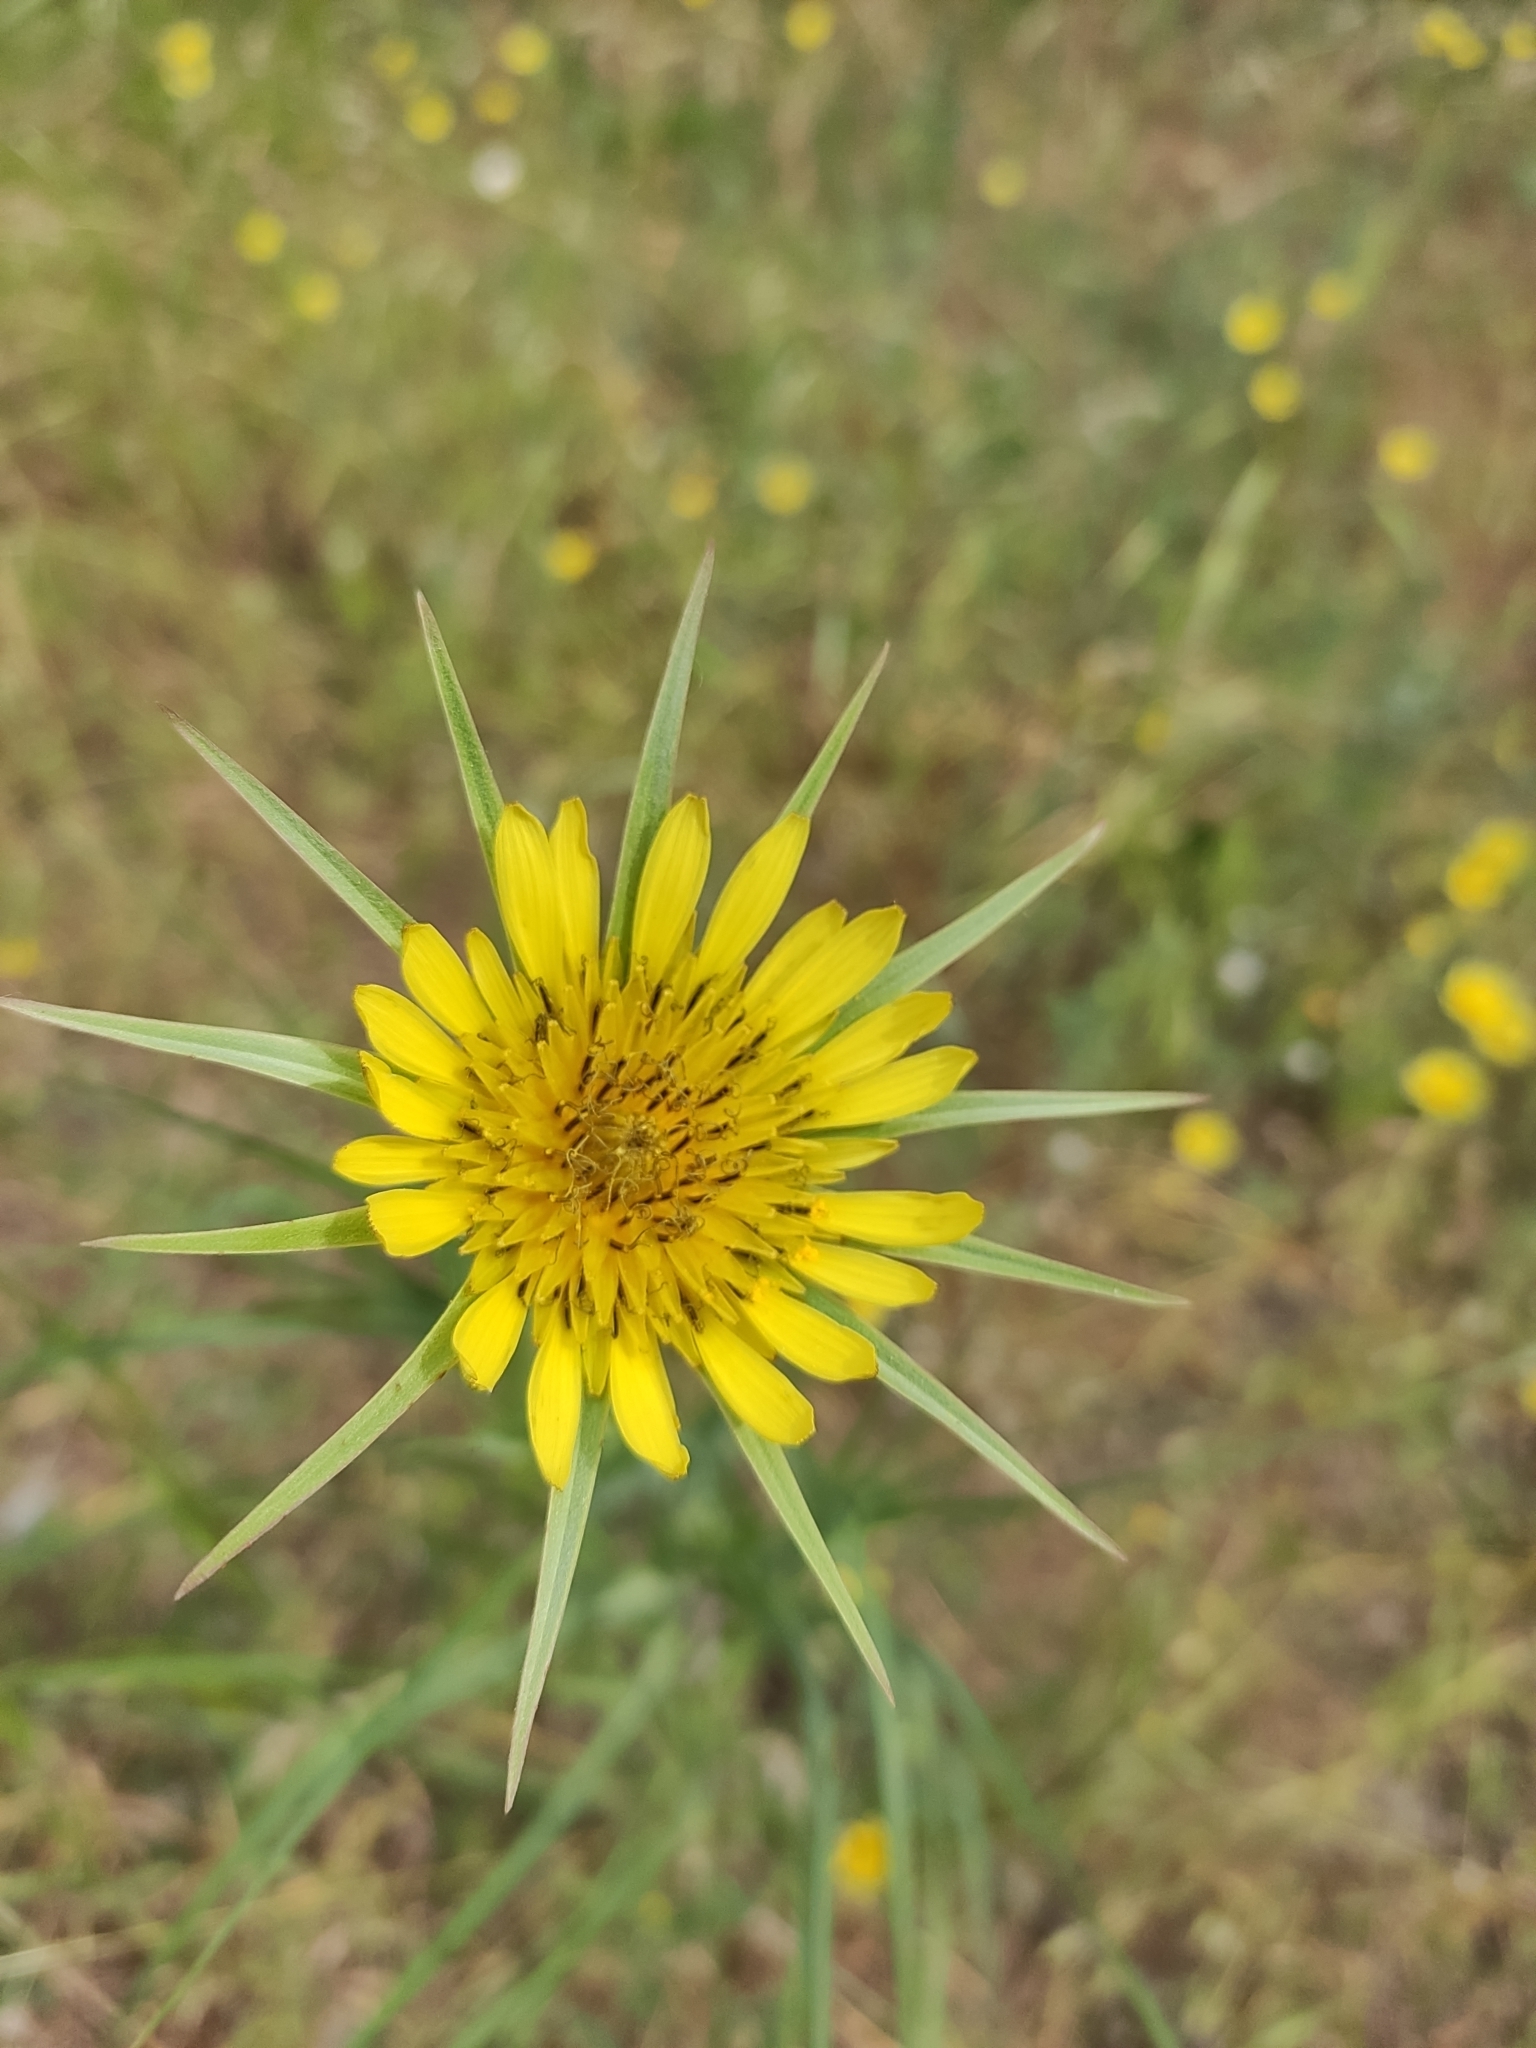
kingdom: Plantae
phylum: Tracheophyta
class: Magnoliopsida
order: Asterales
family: Asteraceae
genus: Tragopogon
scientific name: Tragopogon dubius
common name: Yellow salsify
